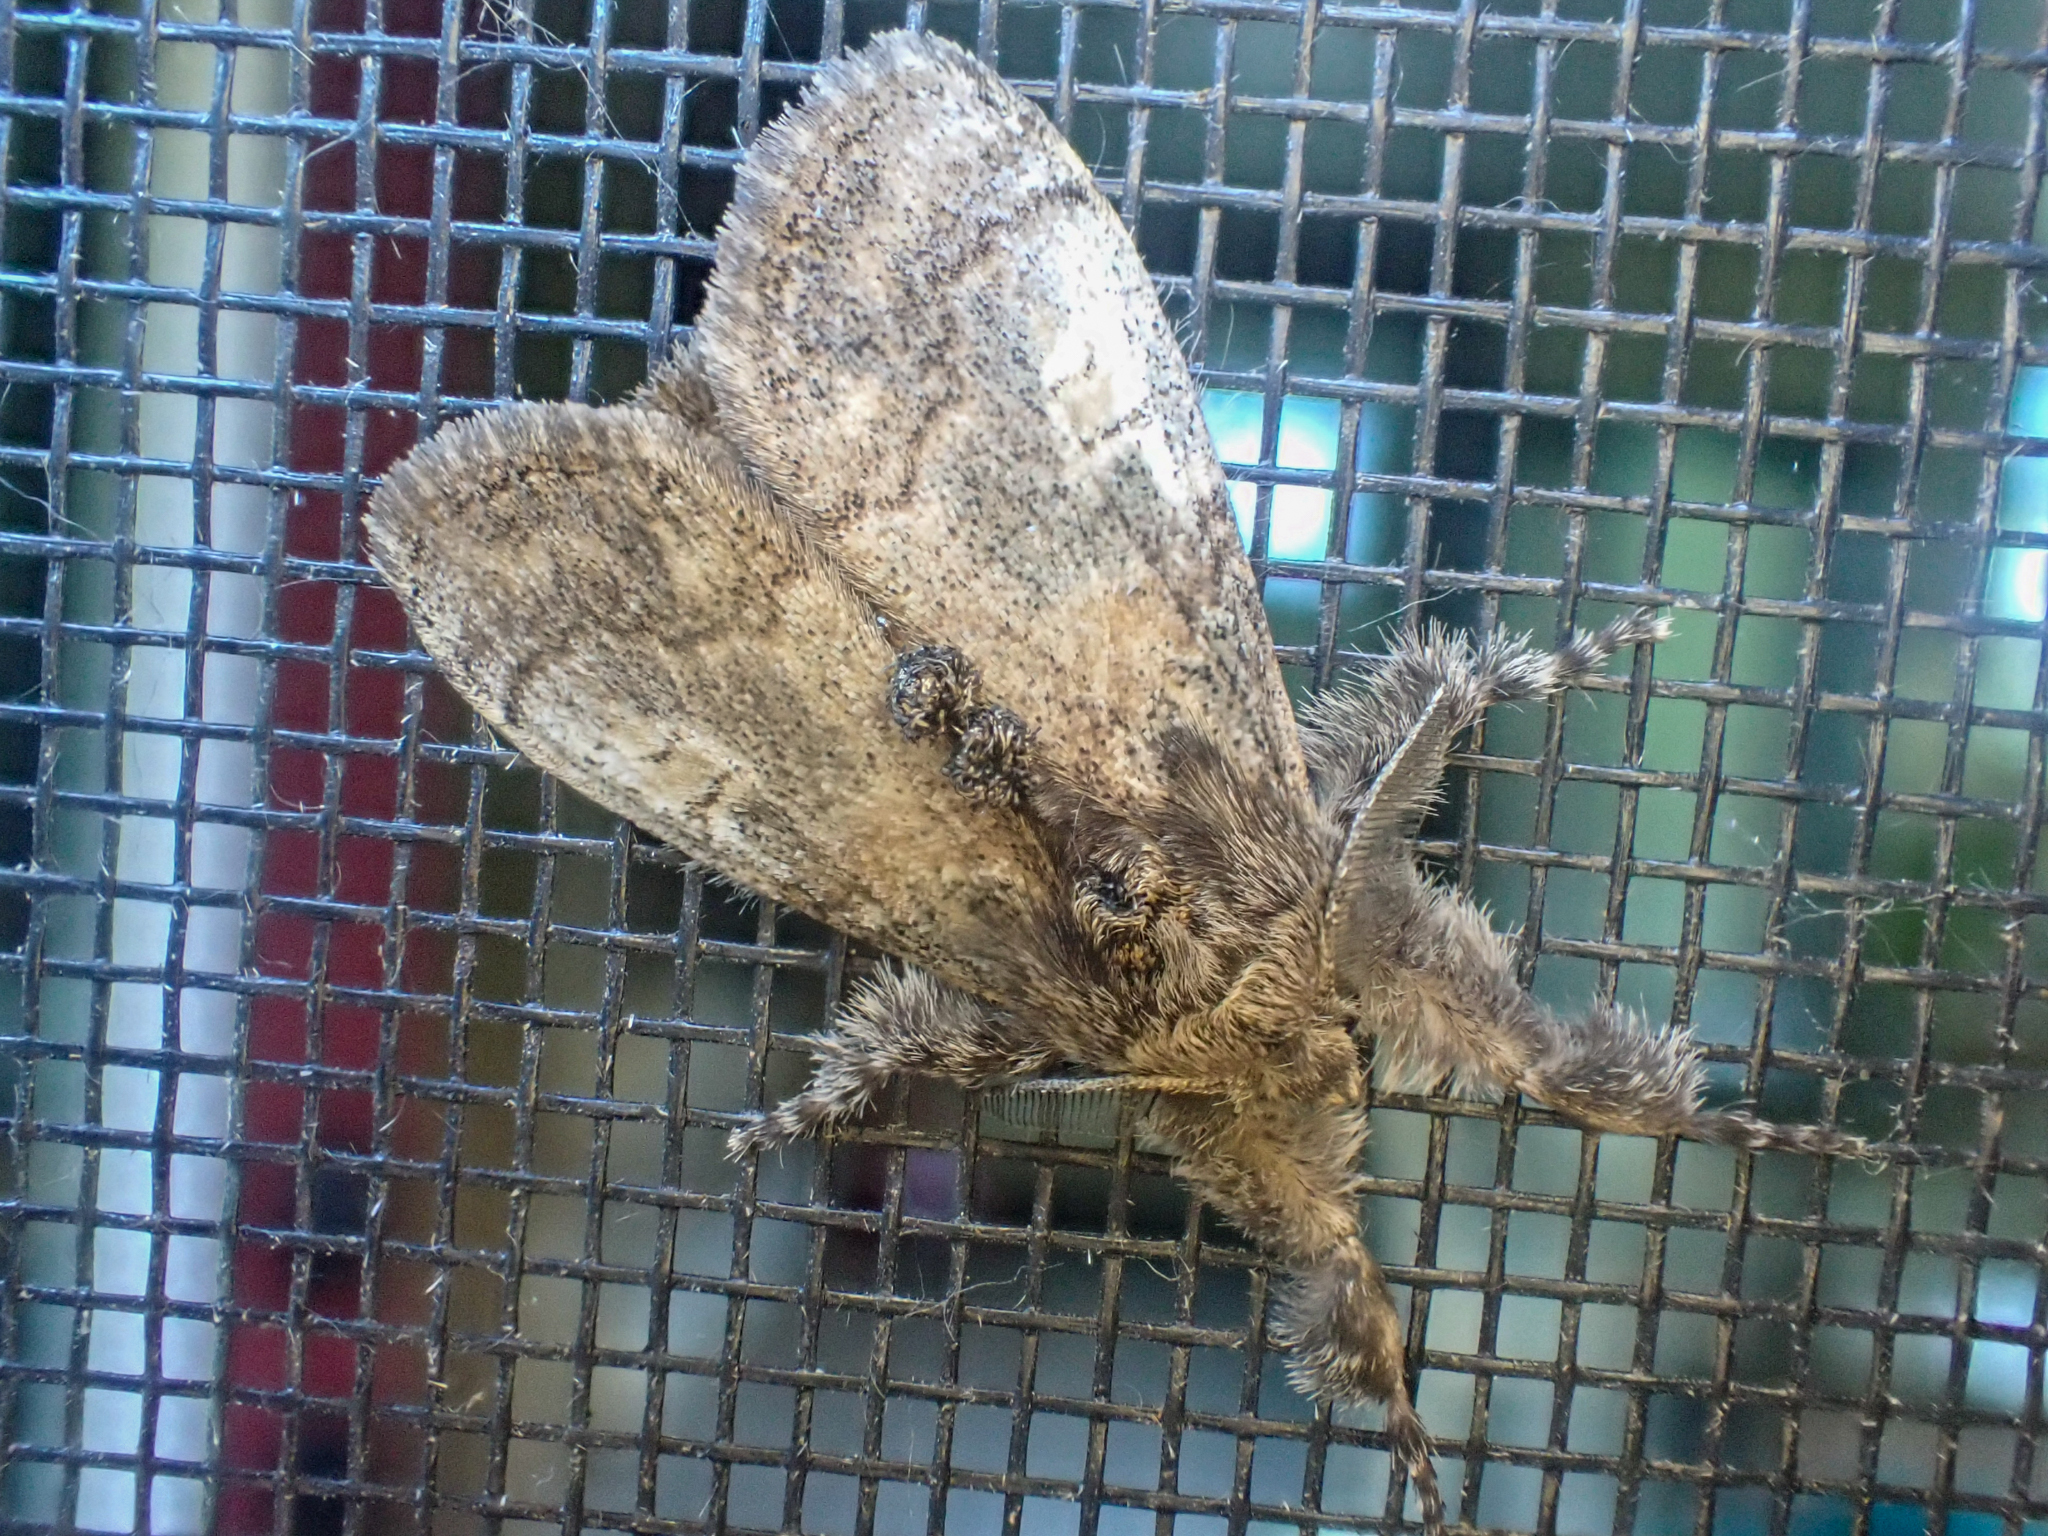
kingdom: Animalia
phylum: Arthropoda
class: Insecta
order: Lepidoptera
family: Erebidae
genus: Dasychira
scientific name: Dasychira vagans
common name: Variable tussock moth
